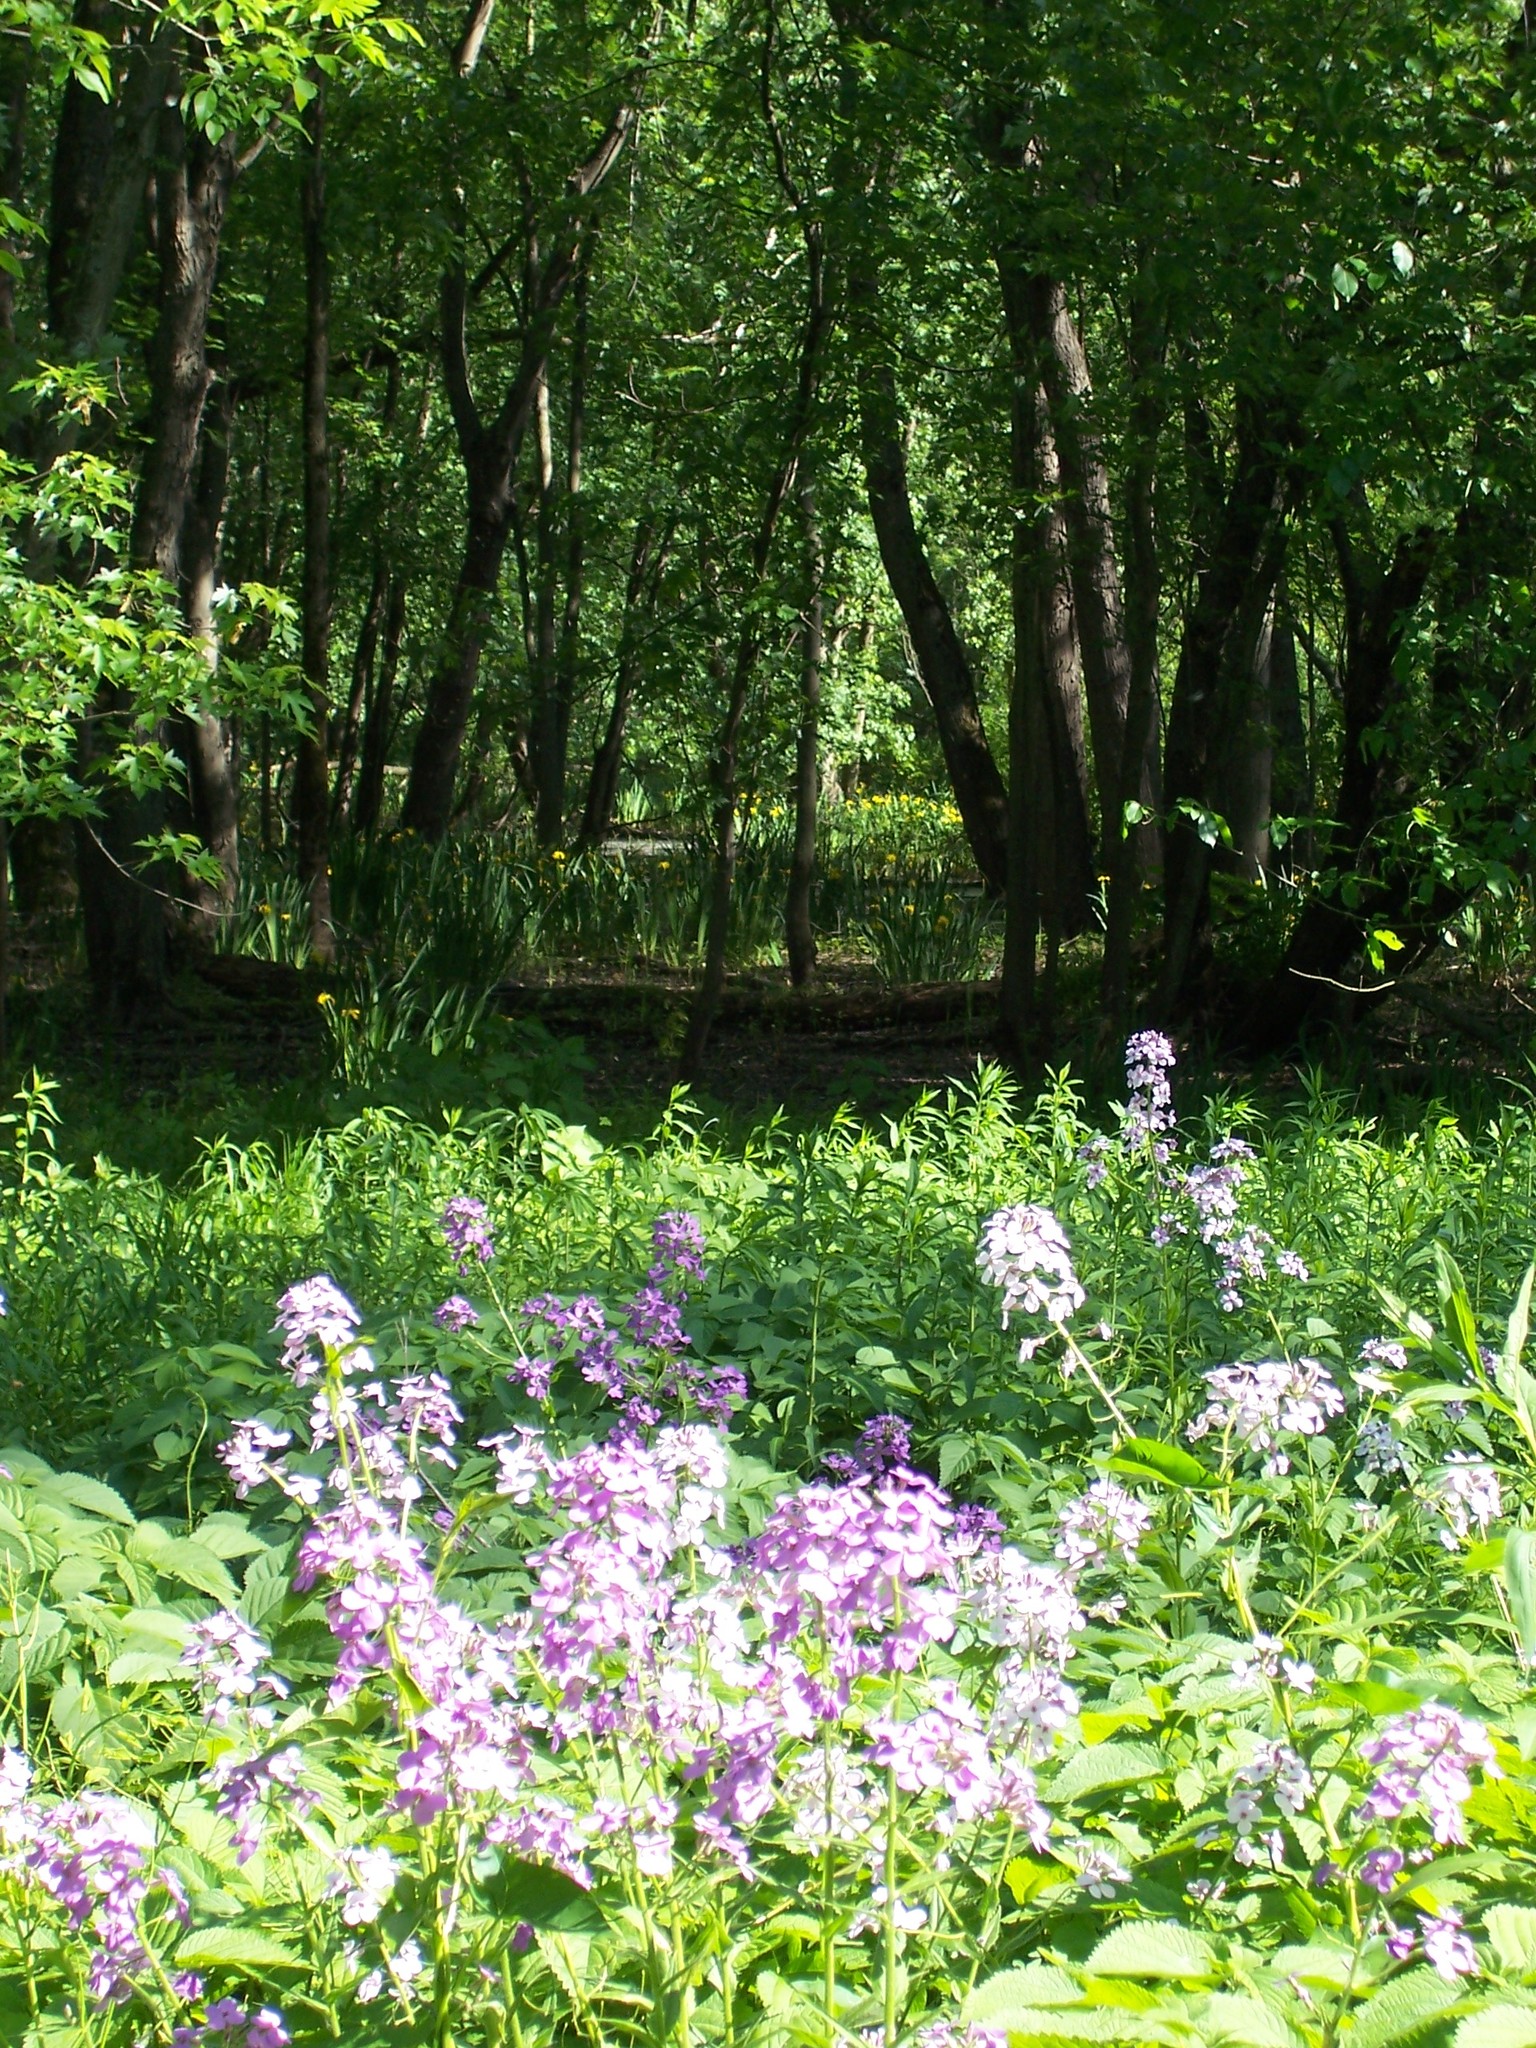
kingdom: Plantae
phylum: Tracheophyta
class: Magnoliopsida
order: Brassicales
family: Brassicaceae
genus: Hesperis
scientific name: Hesperis matronalis
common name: Dame's-violet
